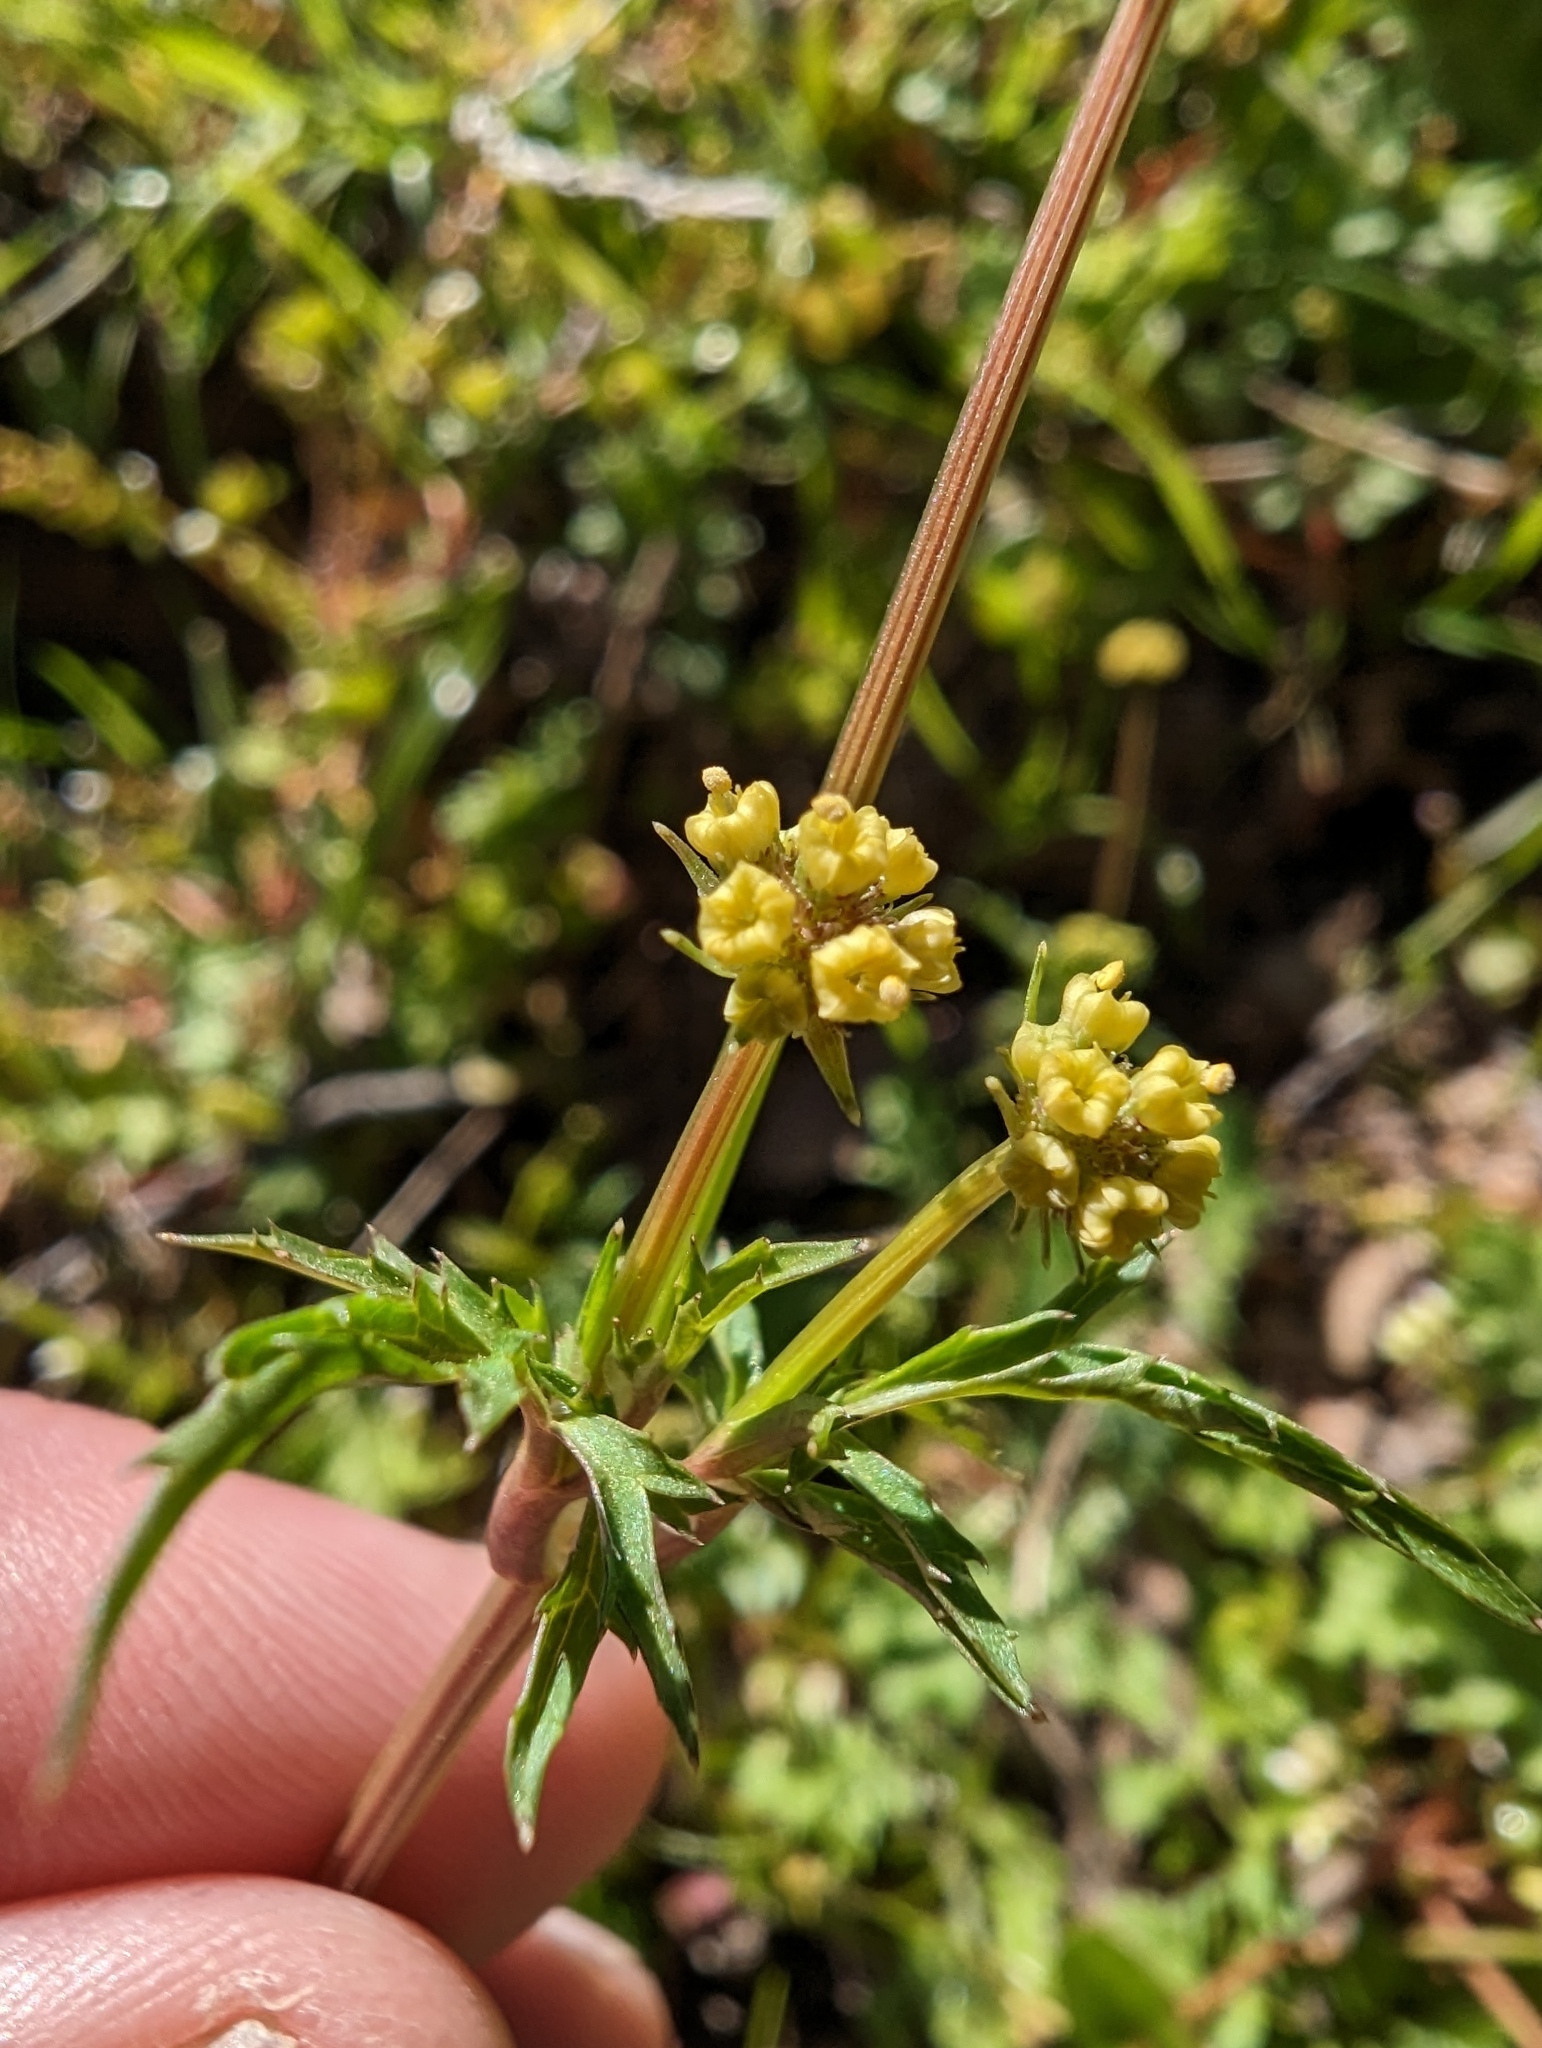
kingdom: Plantae
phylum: Tracheophyta
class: Magnoliopsida
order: Apiales
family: Apiaceae
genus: Sanicula
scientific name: Sanicula bipinnata
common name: Poison sanicle
